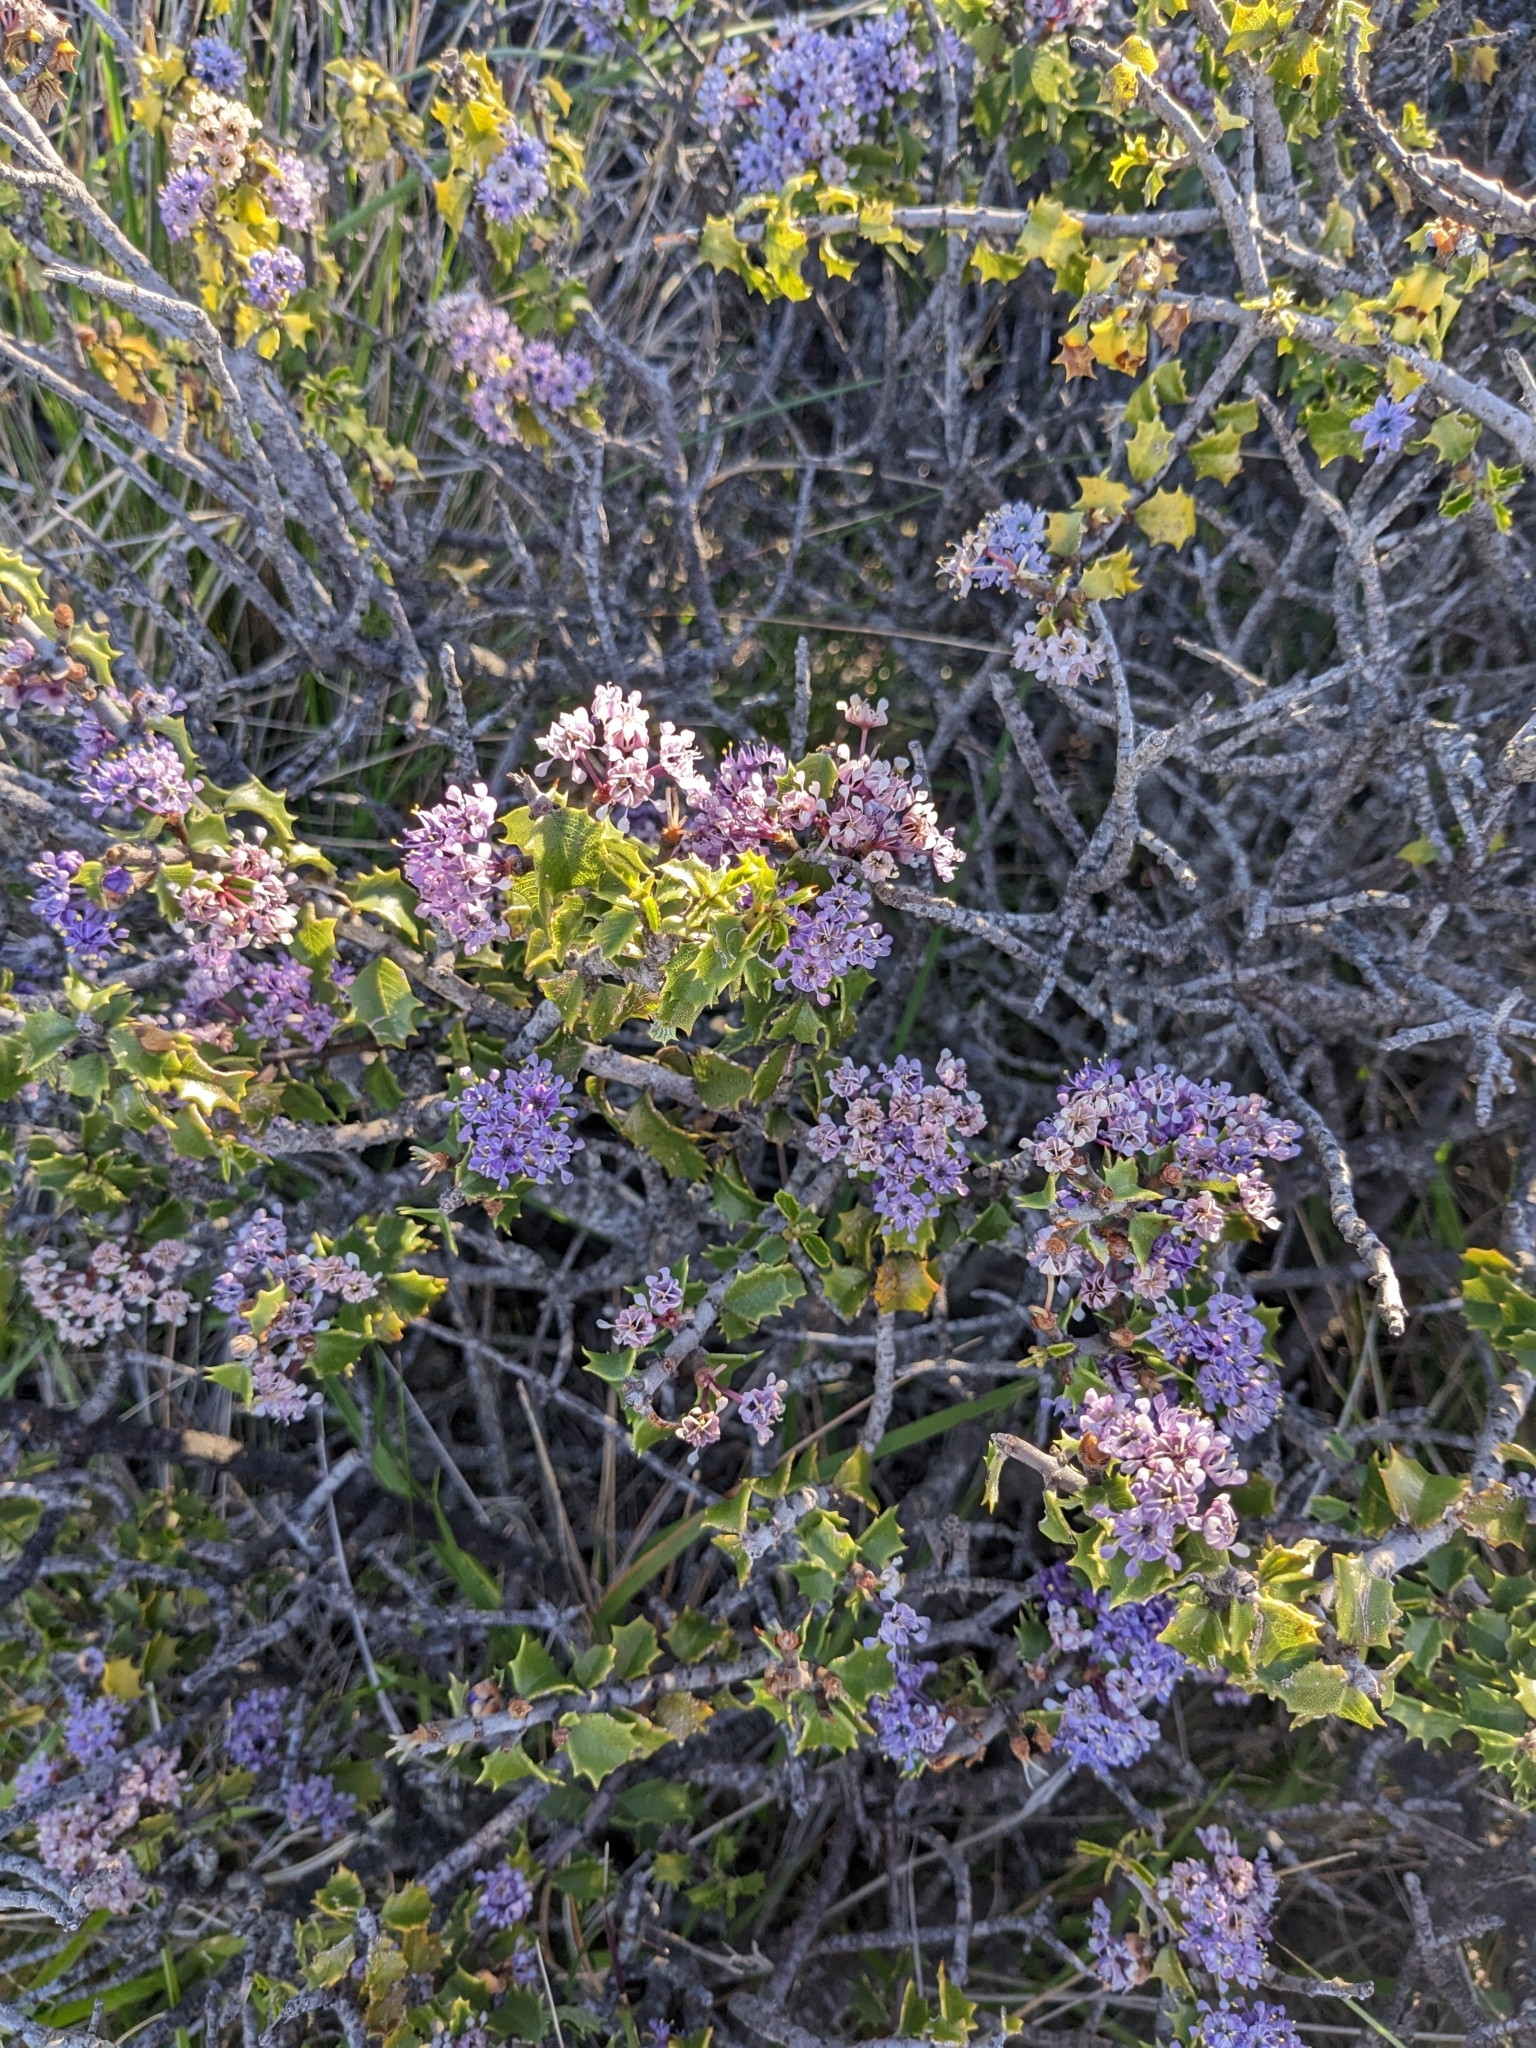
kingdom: Plantae
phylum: Tracheophyta
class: Magnoliopsida
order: Rosales
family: Rhamnaceae
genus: Ceanothus
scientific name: Ceanothus jepsonii
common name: Muskbrush
